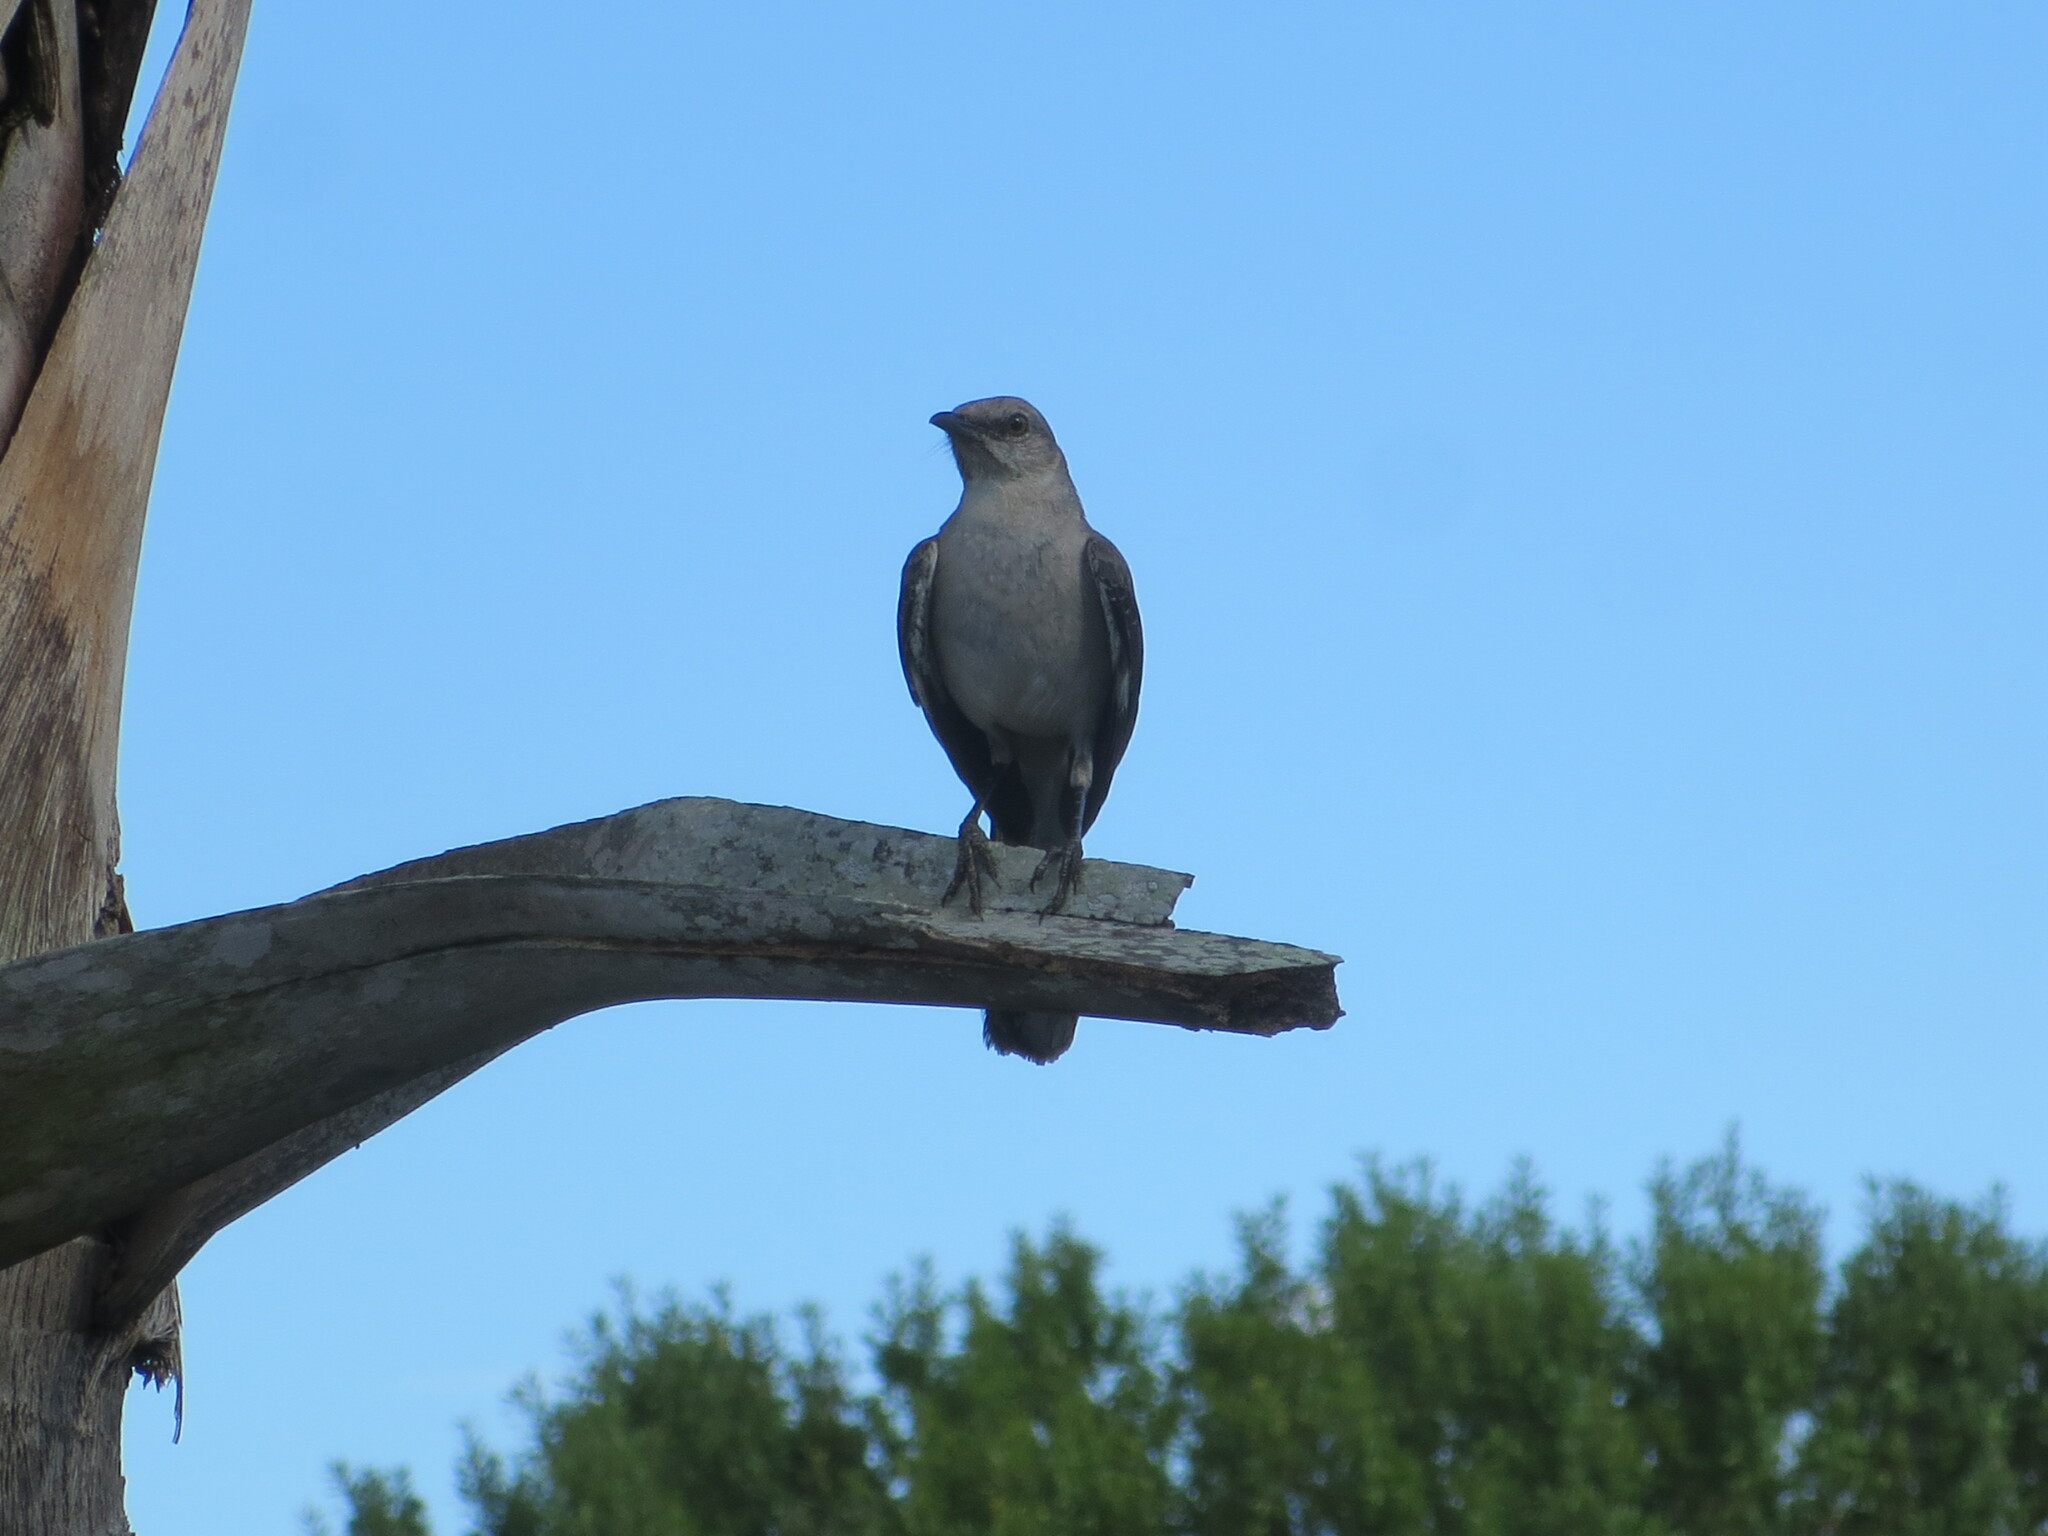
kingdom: Animalia
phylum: Chordata
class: Aves
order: Passeriformes
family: Mimidae
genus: Mimus
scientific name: Mimus polyglottos
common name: Northern mockingbird
